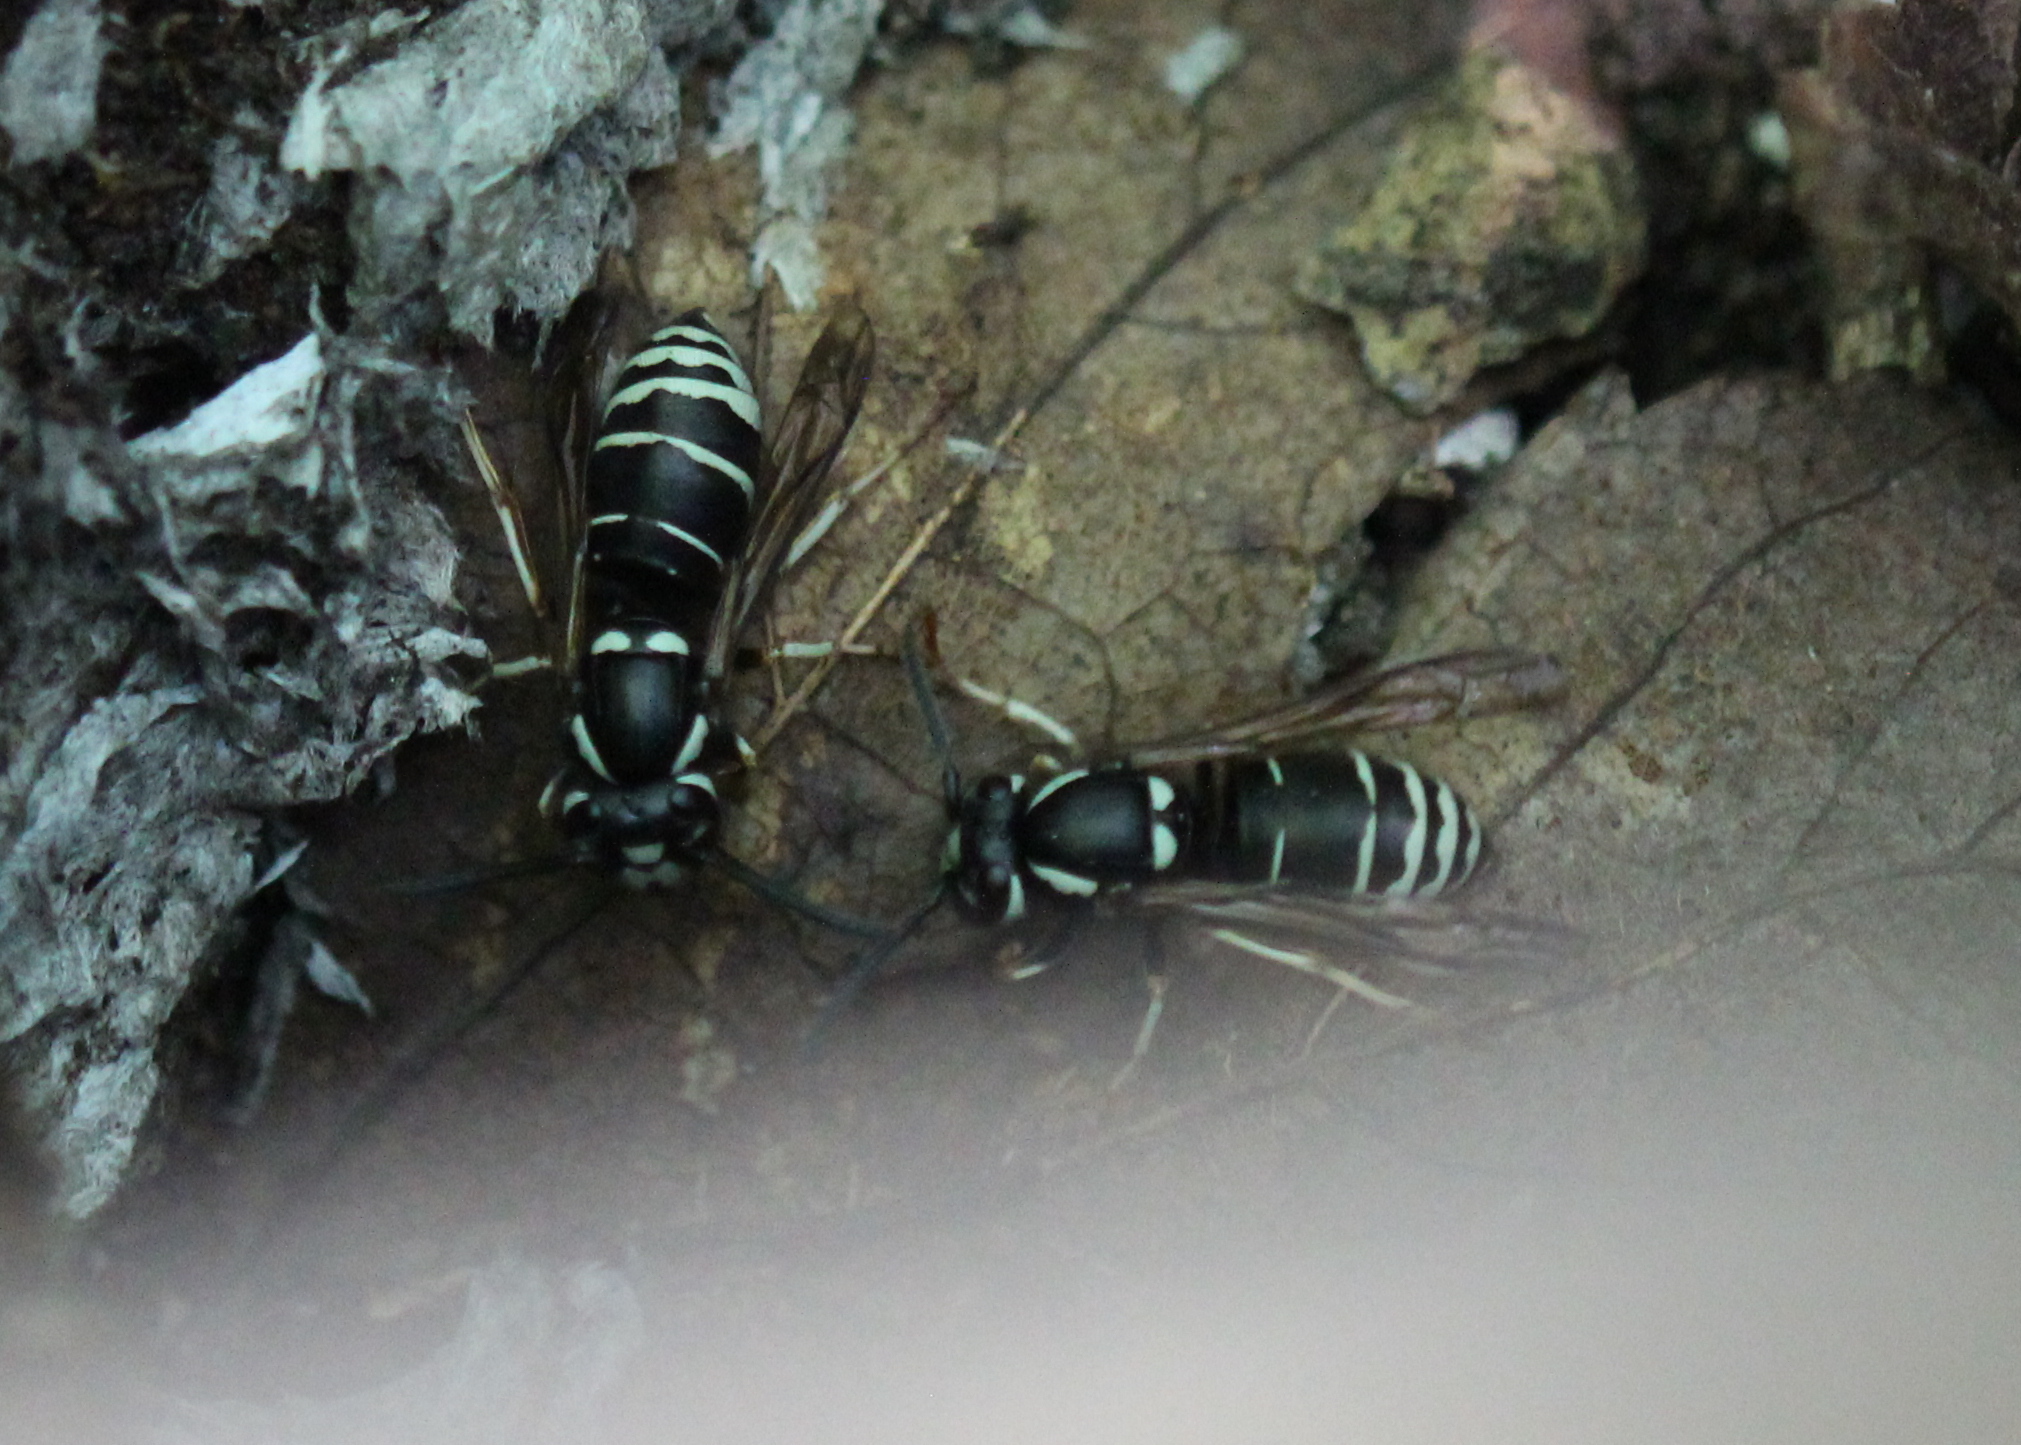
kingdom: Animalia
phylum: Arthropoda
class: Insecta
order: Hymenoptera
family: Vespidae
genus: Vespula
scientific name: Vespula consobrina
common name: Blackjacket
